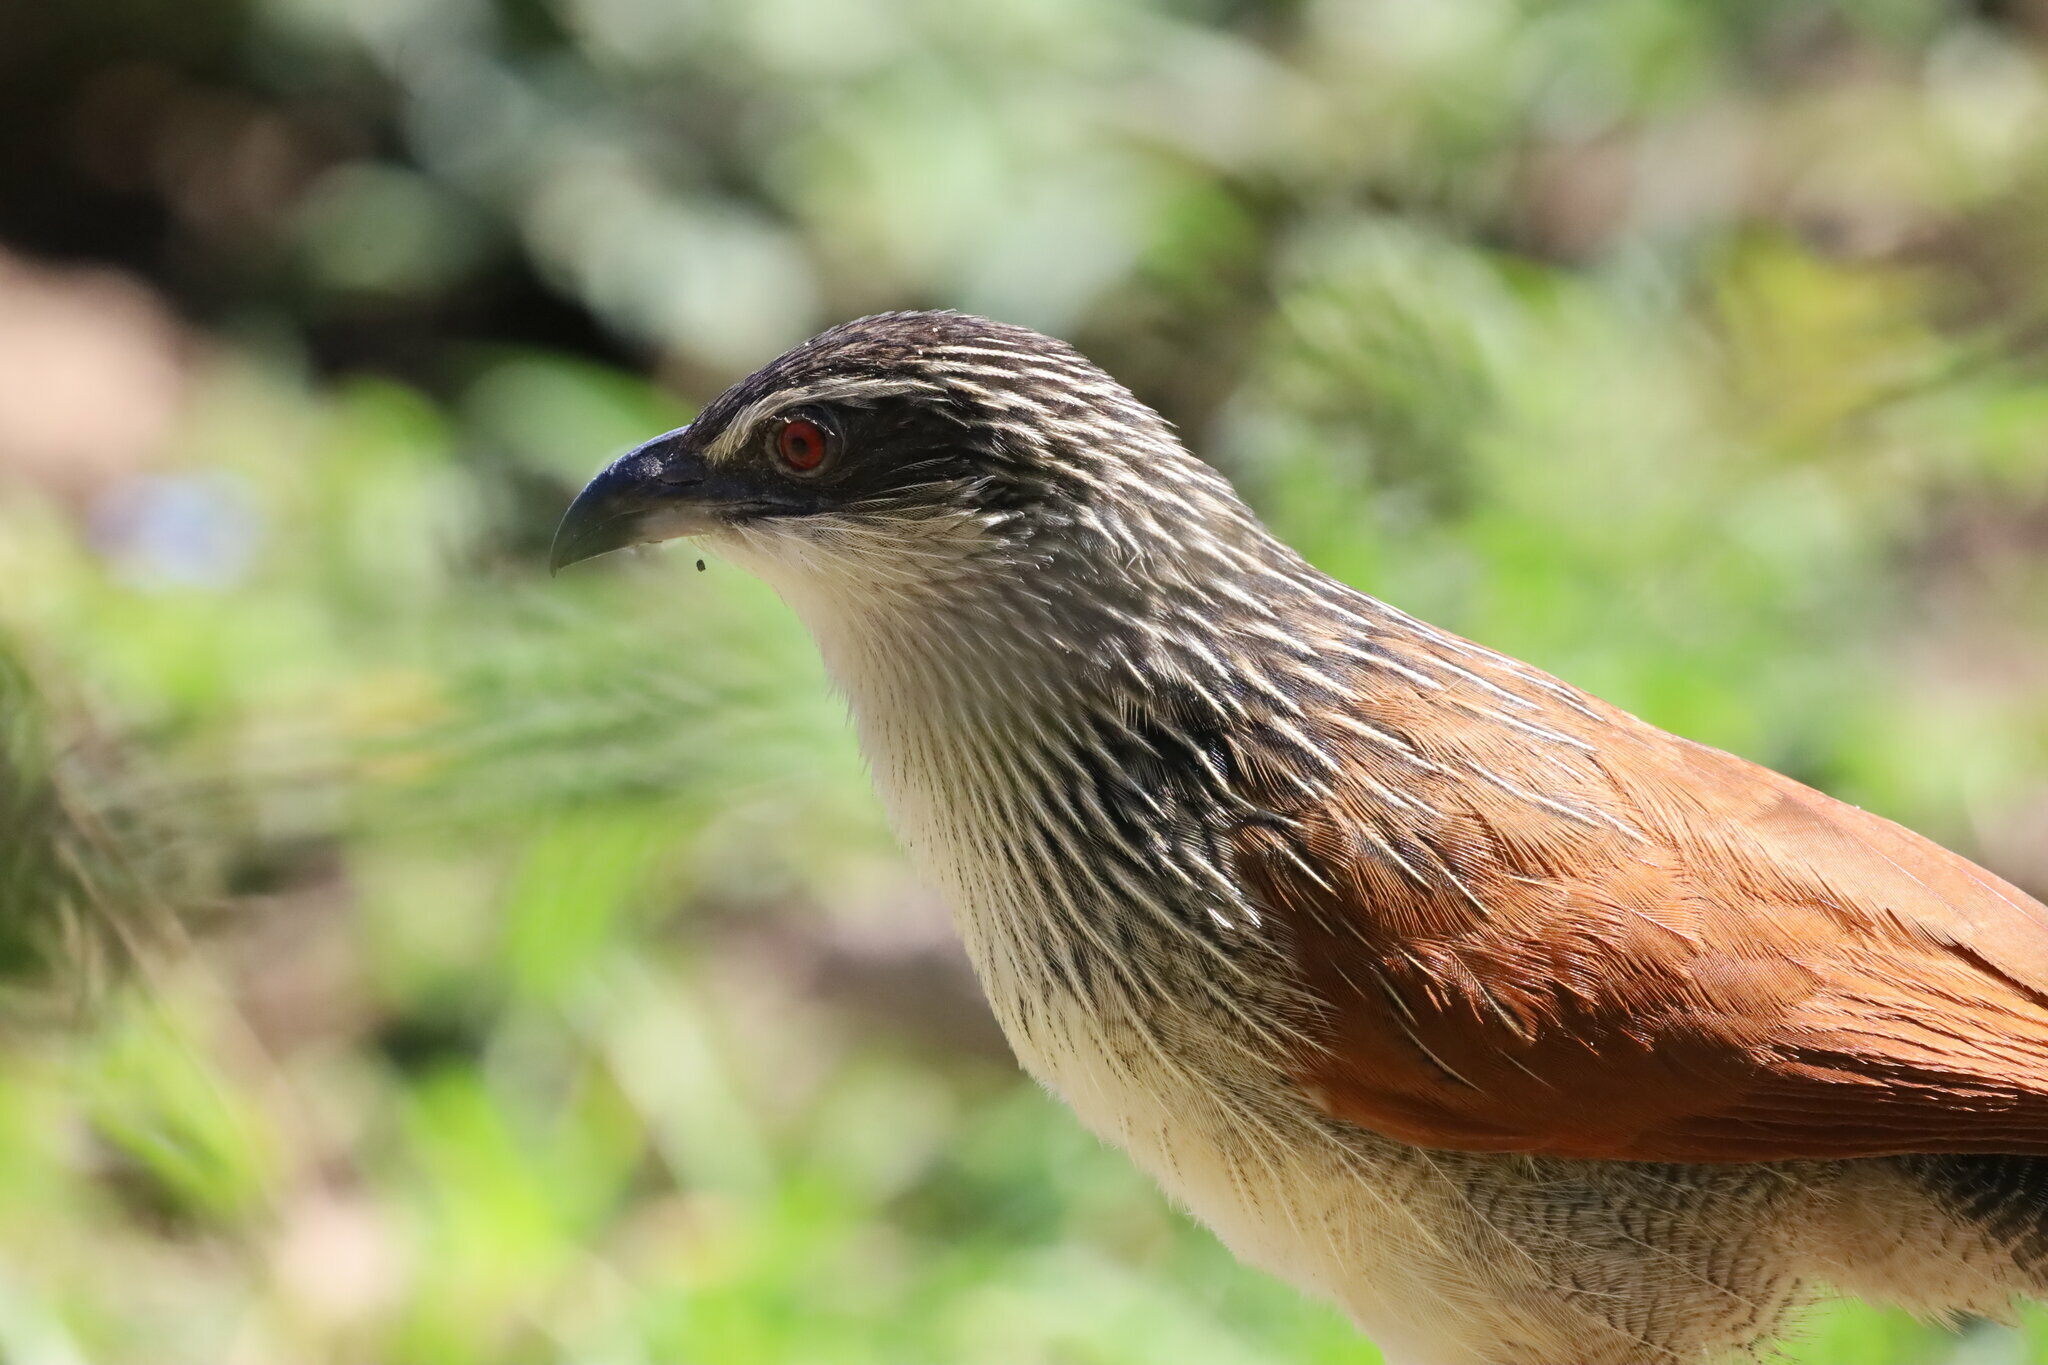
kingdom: Animalia
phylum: Chordata
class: Aves
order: Cuculiformes
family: Cuculidae
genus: Centropus
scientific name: Centropus superciliosus
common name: White-browed coucal
